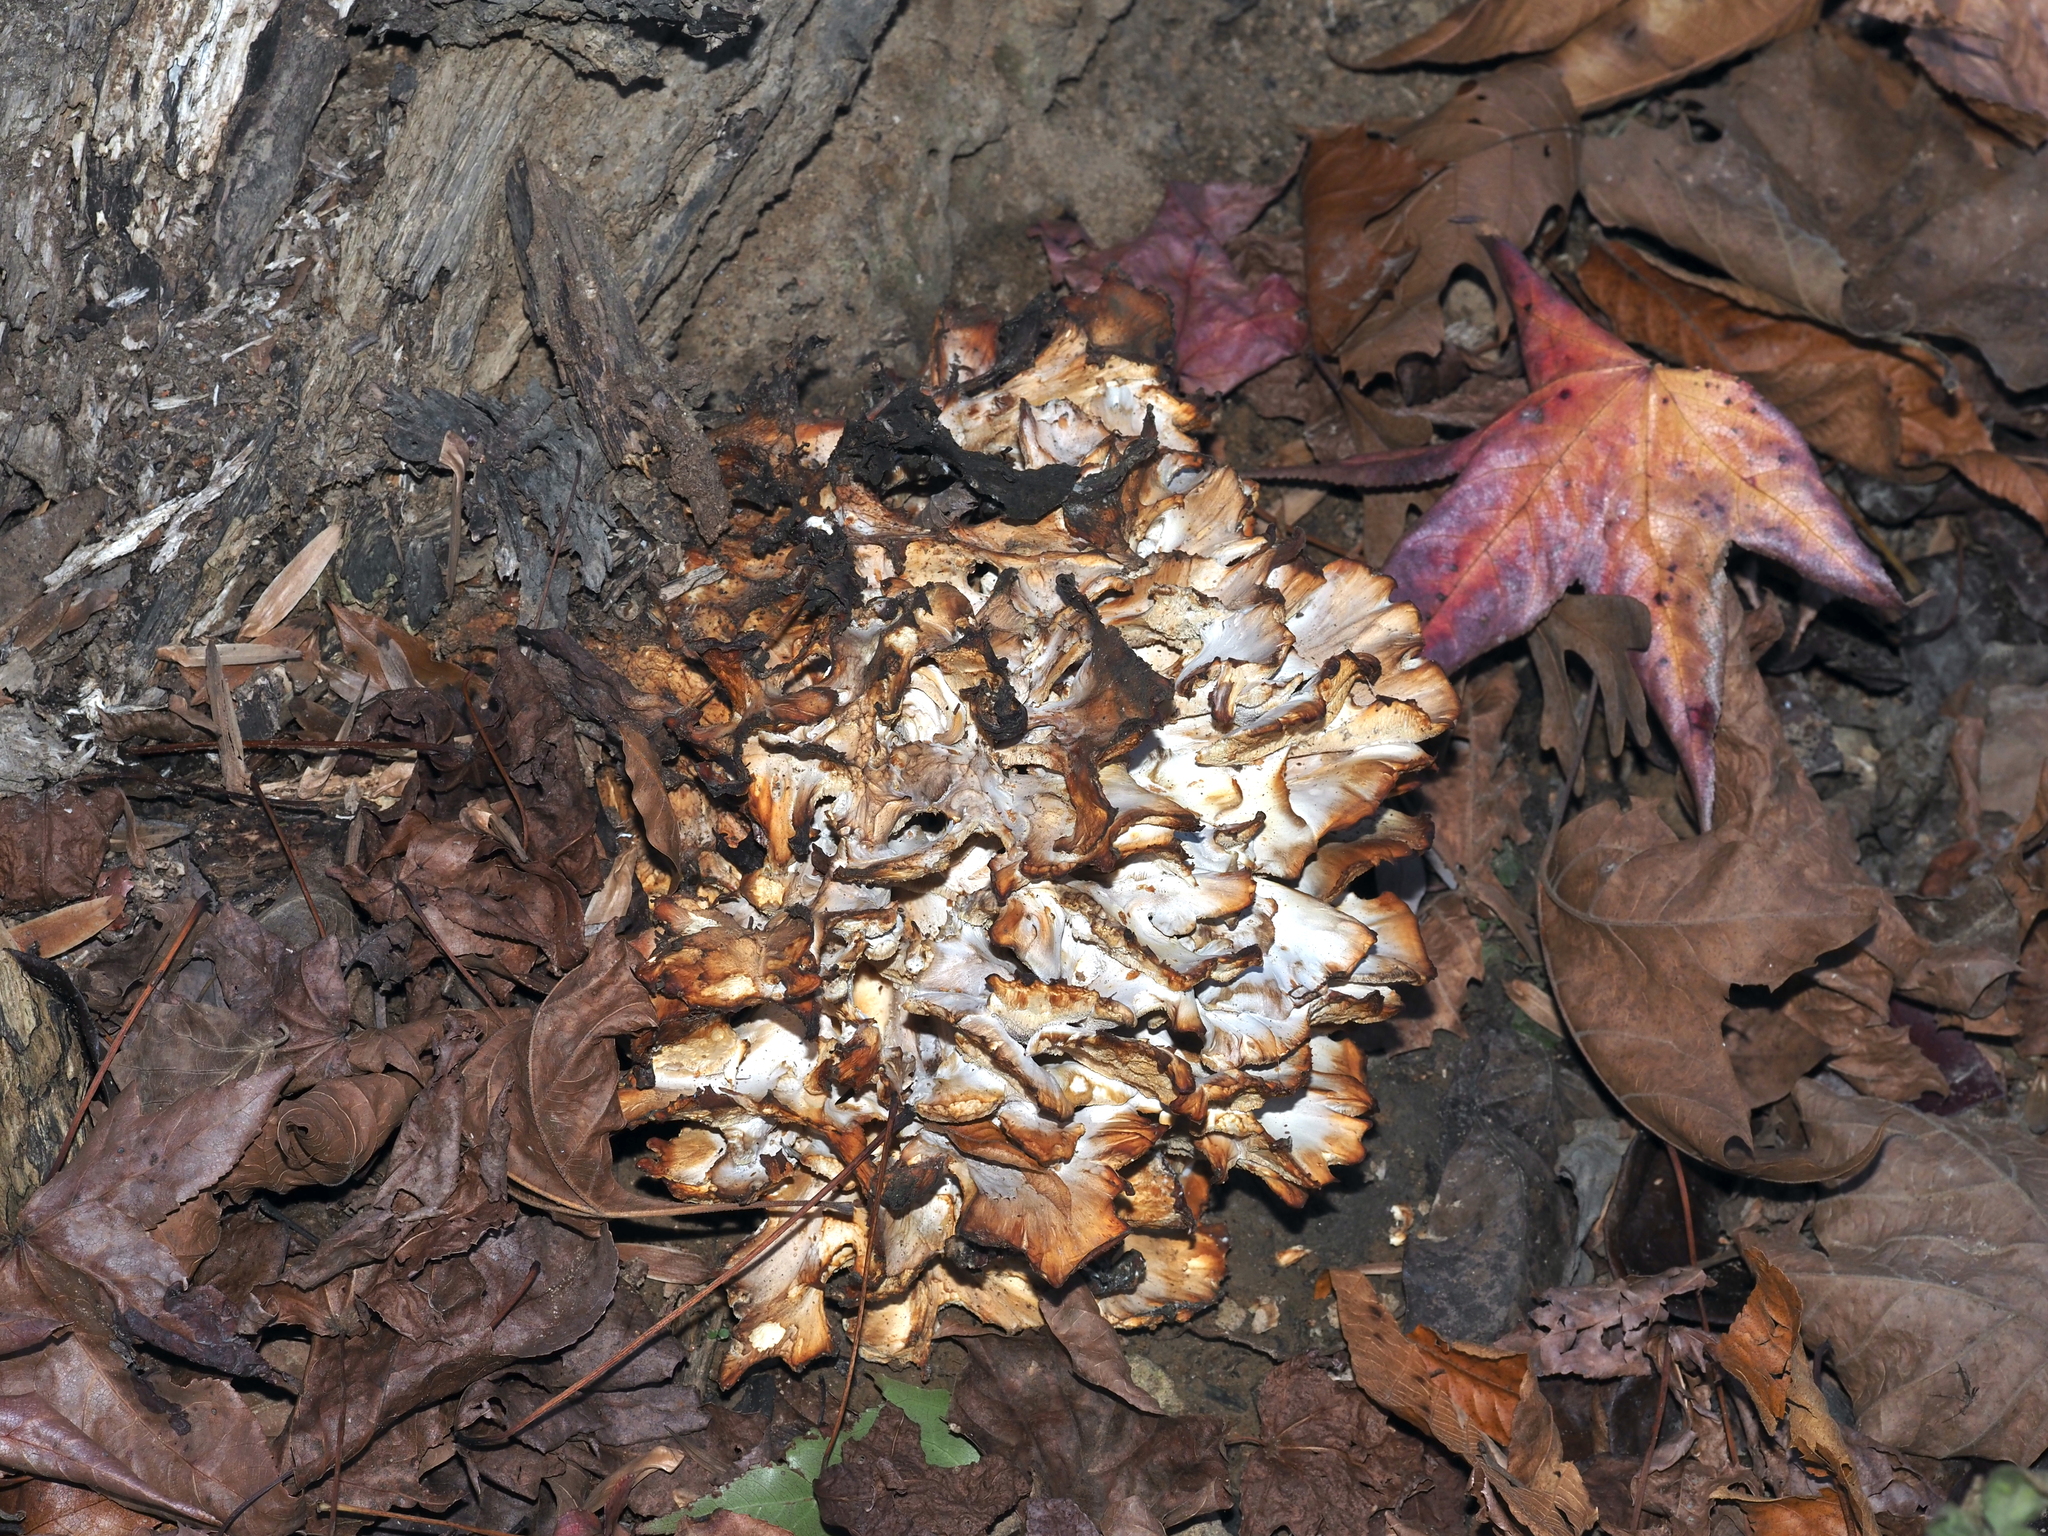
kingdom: Fungi
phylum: Basidiomycota
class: Agaricomycetes
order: Polyporales
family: Grifolaceae
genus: Grifola
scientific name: Grifola frondosa
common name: Hen of the woods
